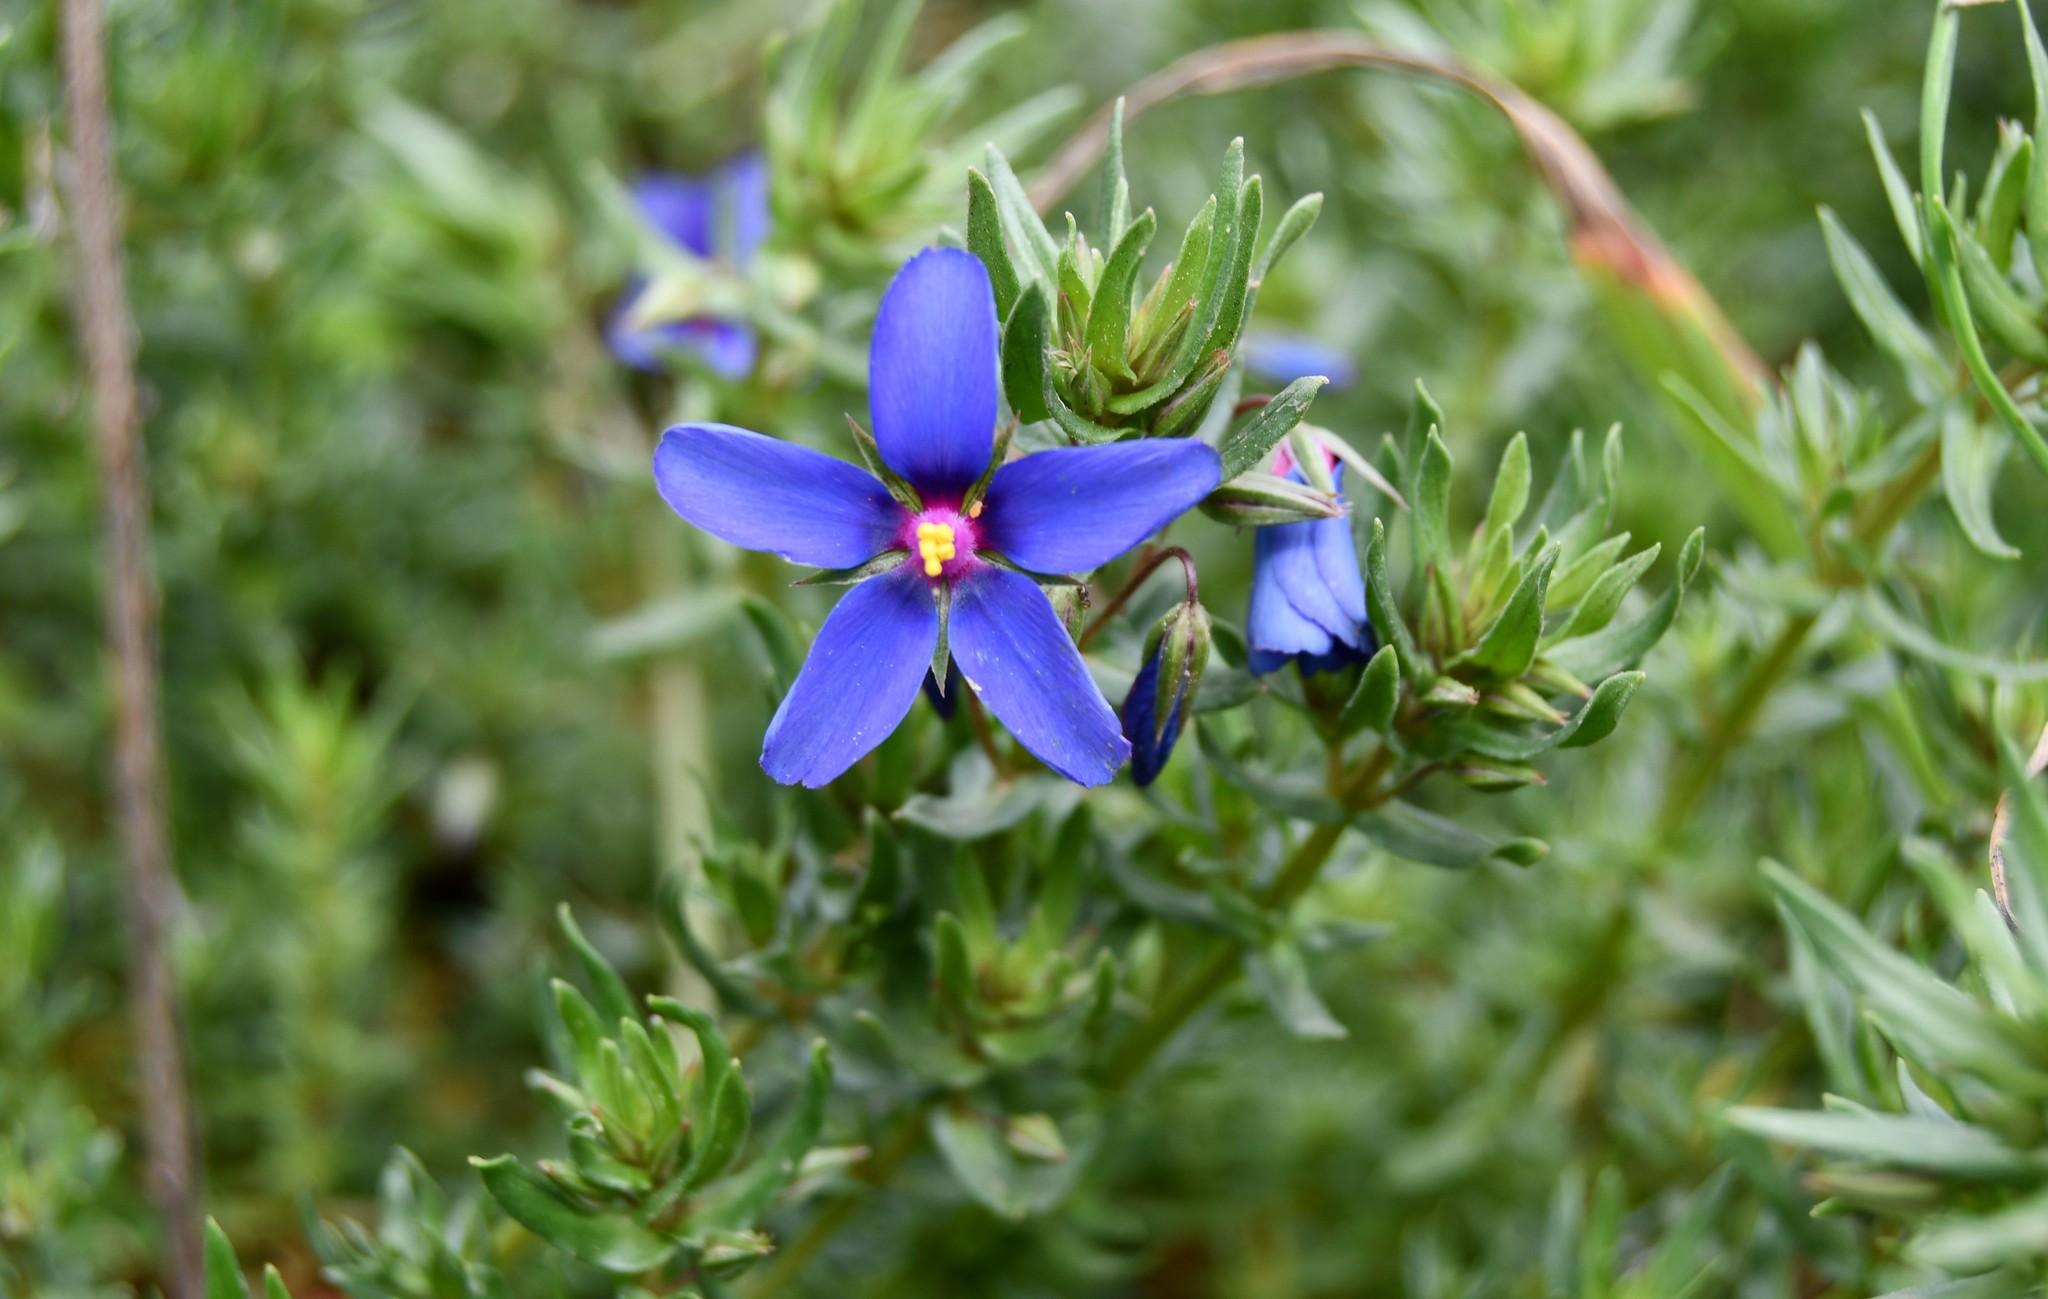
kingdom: Plantae
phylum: Tracheophyta
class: Magnoliopsida
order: Ericales
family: Primulaceae
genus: Lysimachia
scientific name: Lysimachia monelli
